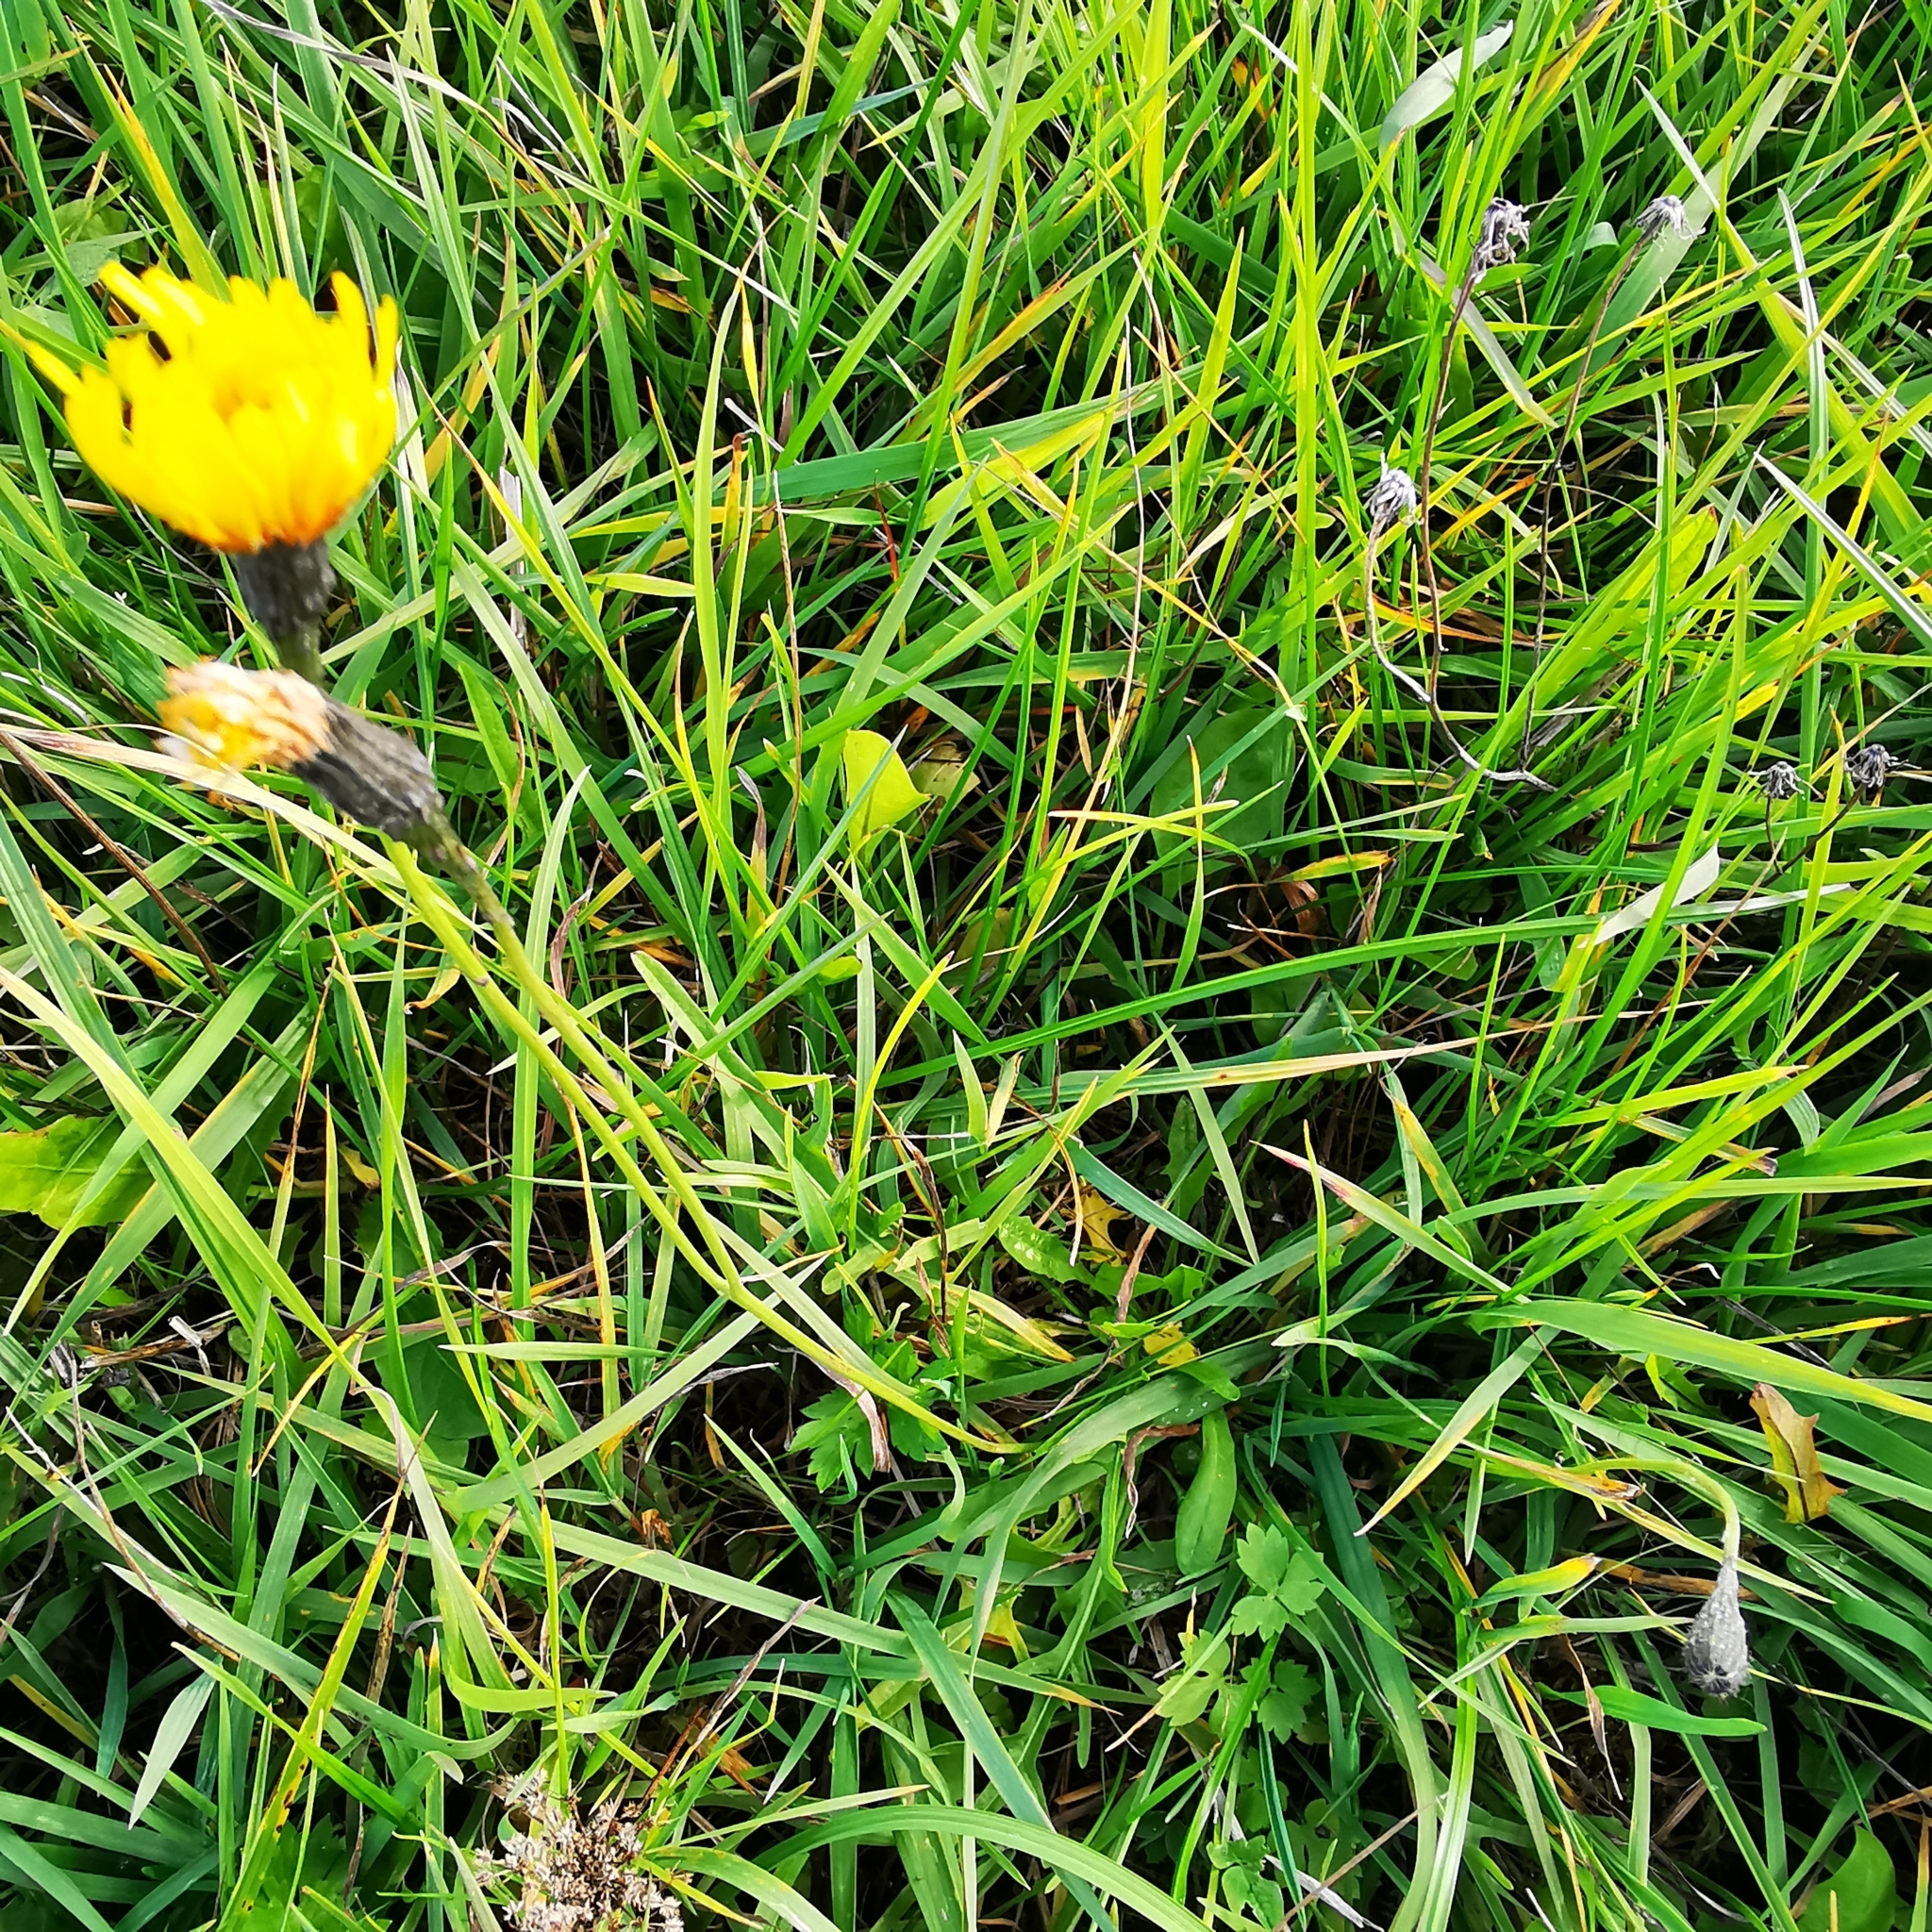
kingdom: Plantae
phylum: Tracheophyta
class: Magnoliopsida
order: Asterales
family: Asteraceae
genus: Scorzoneroides
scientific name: Scorzoneroides autumnalis
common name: Autumn hawkbit
